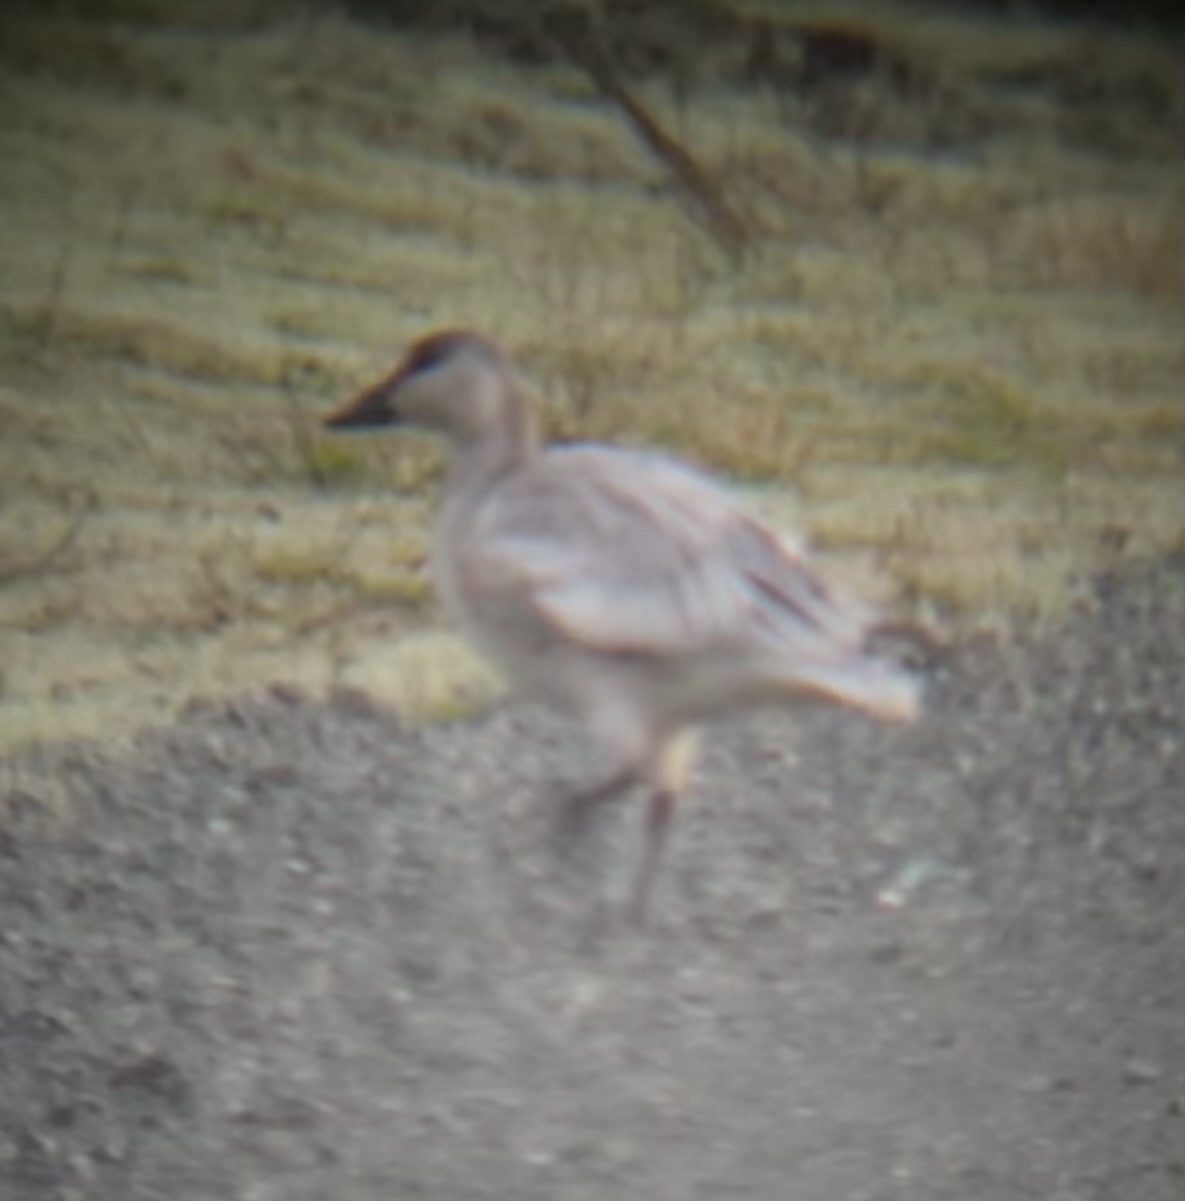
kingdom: Animalia
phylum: Chordata
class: Aves
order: Anseriformes
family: Anatidae
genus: Anser
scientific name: Anser caerulescens
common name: Snow goose
